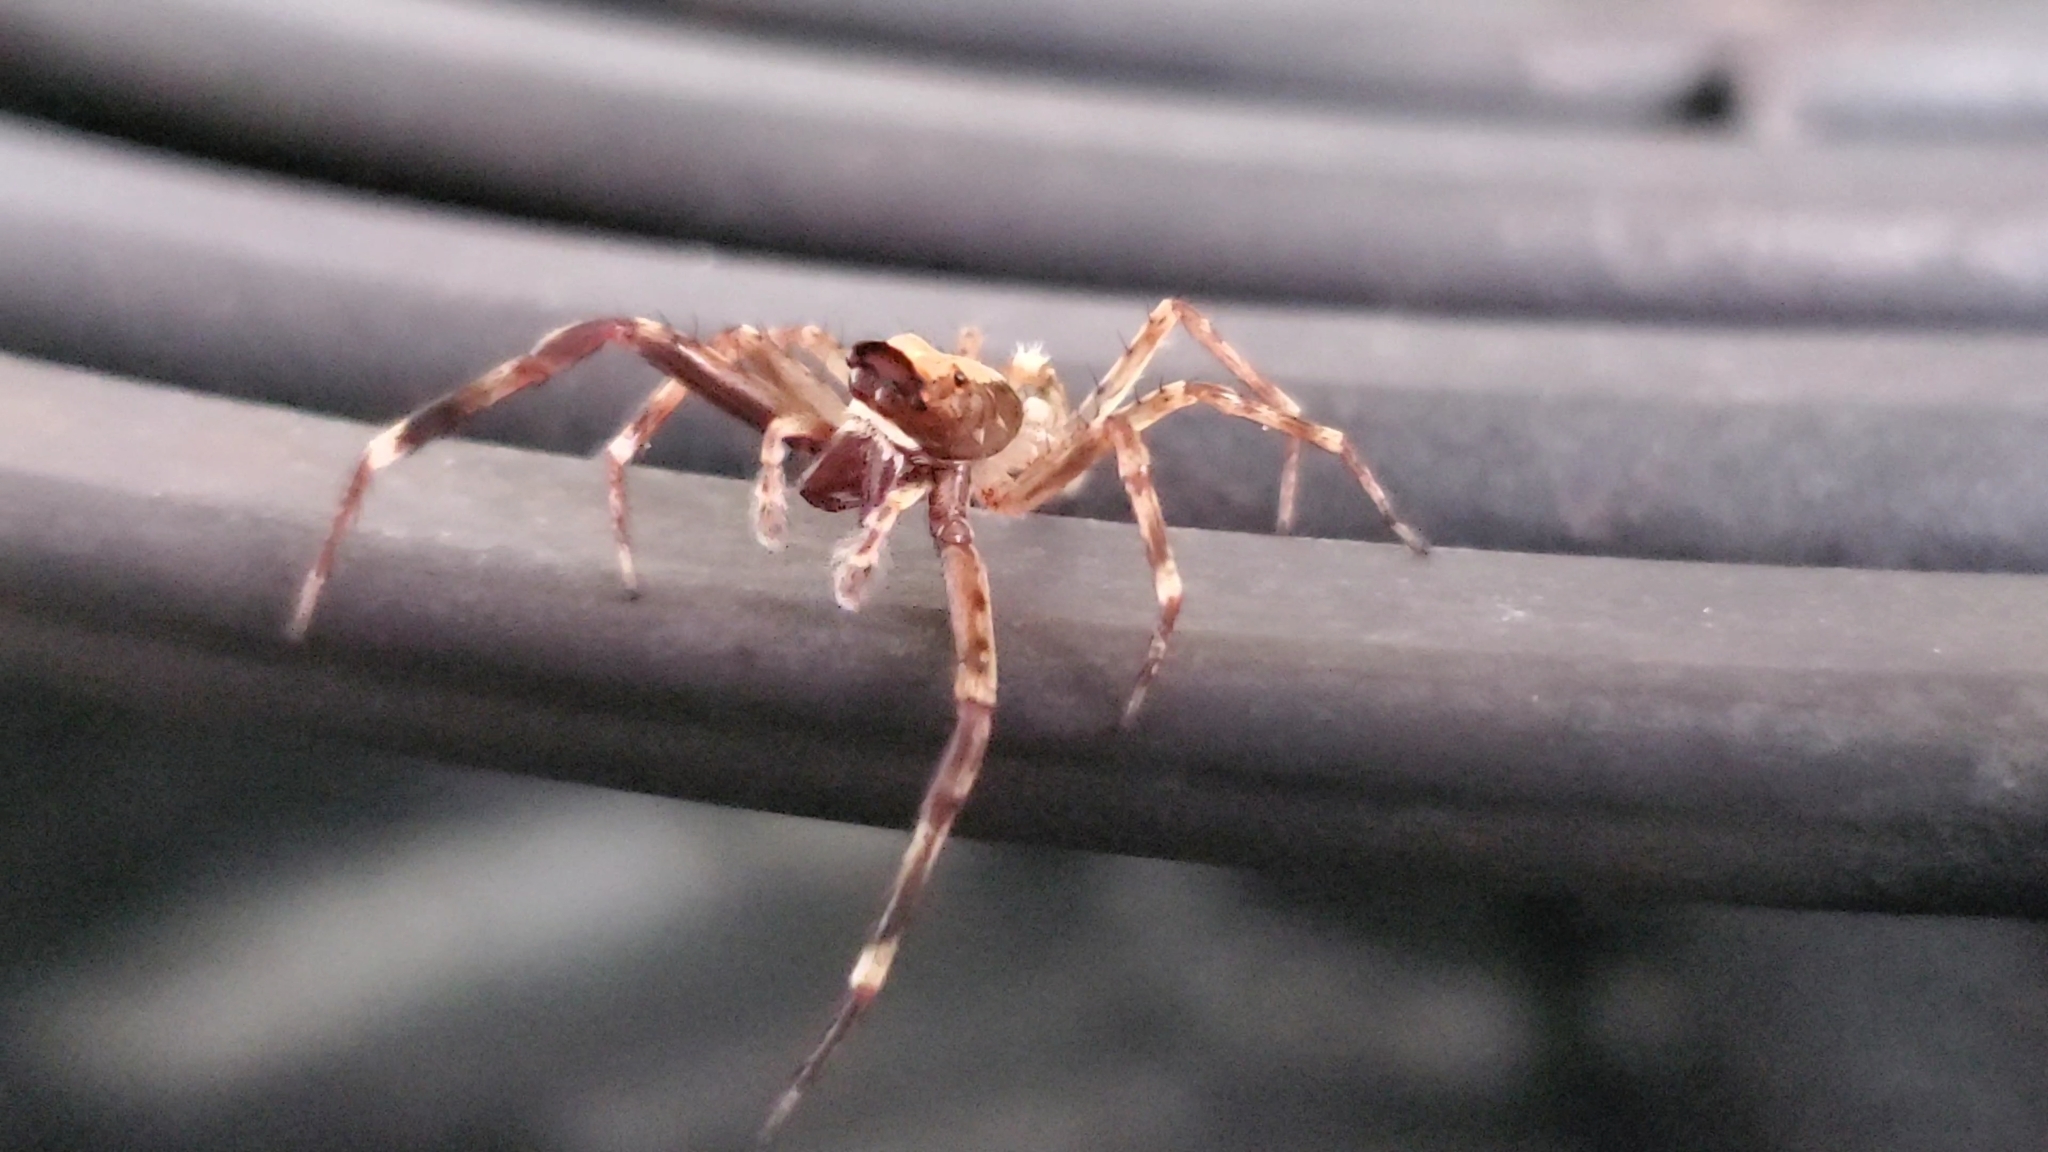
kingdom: Animalia
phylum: Arthropoda
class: Arachnida
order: Araneae
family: Salticidae
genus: Helpis
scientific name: Helpis minitabunda
